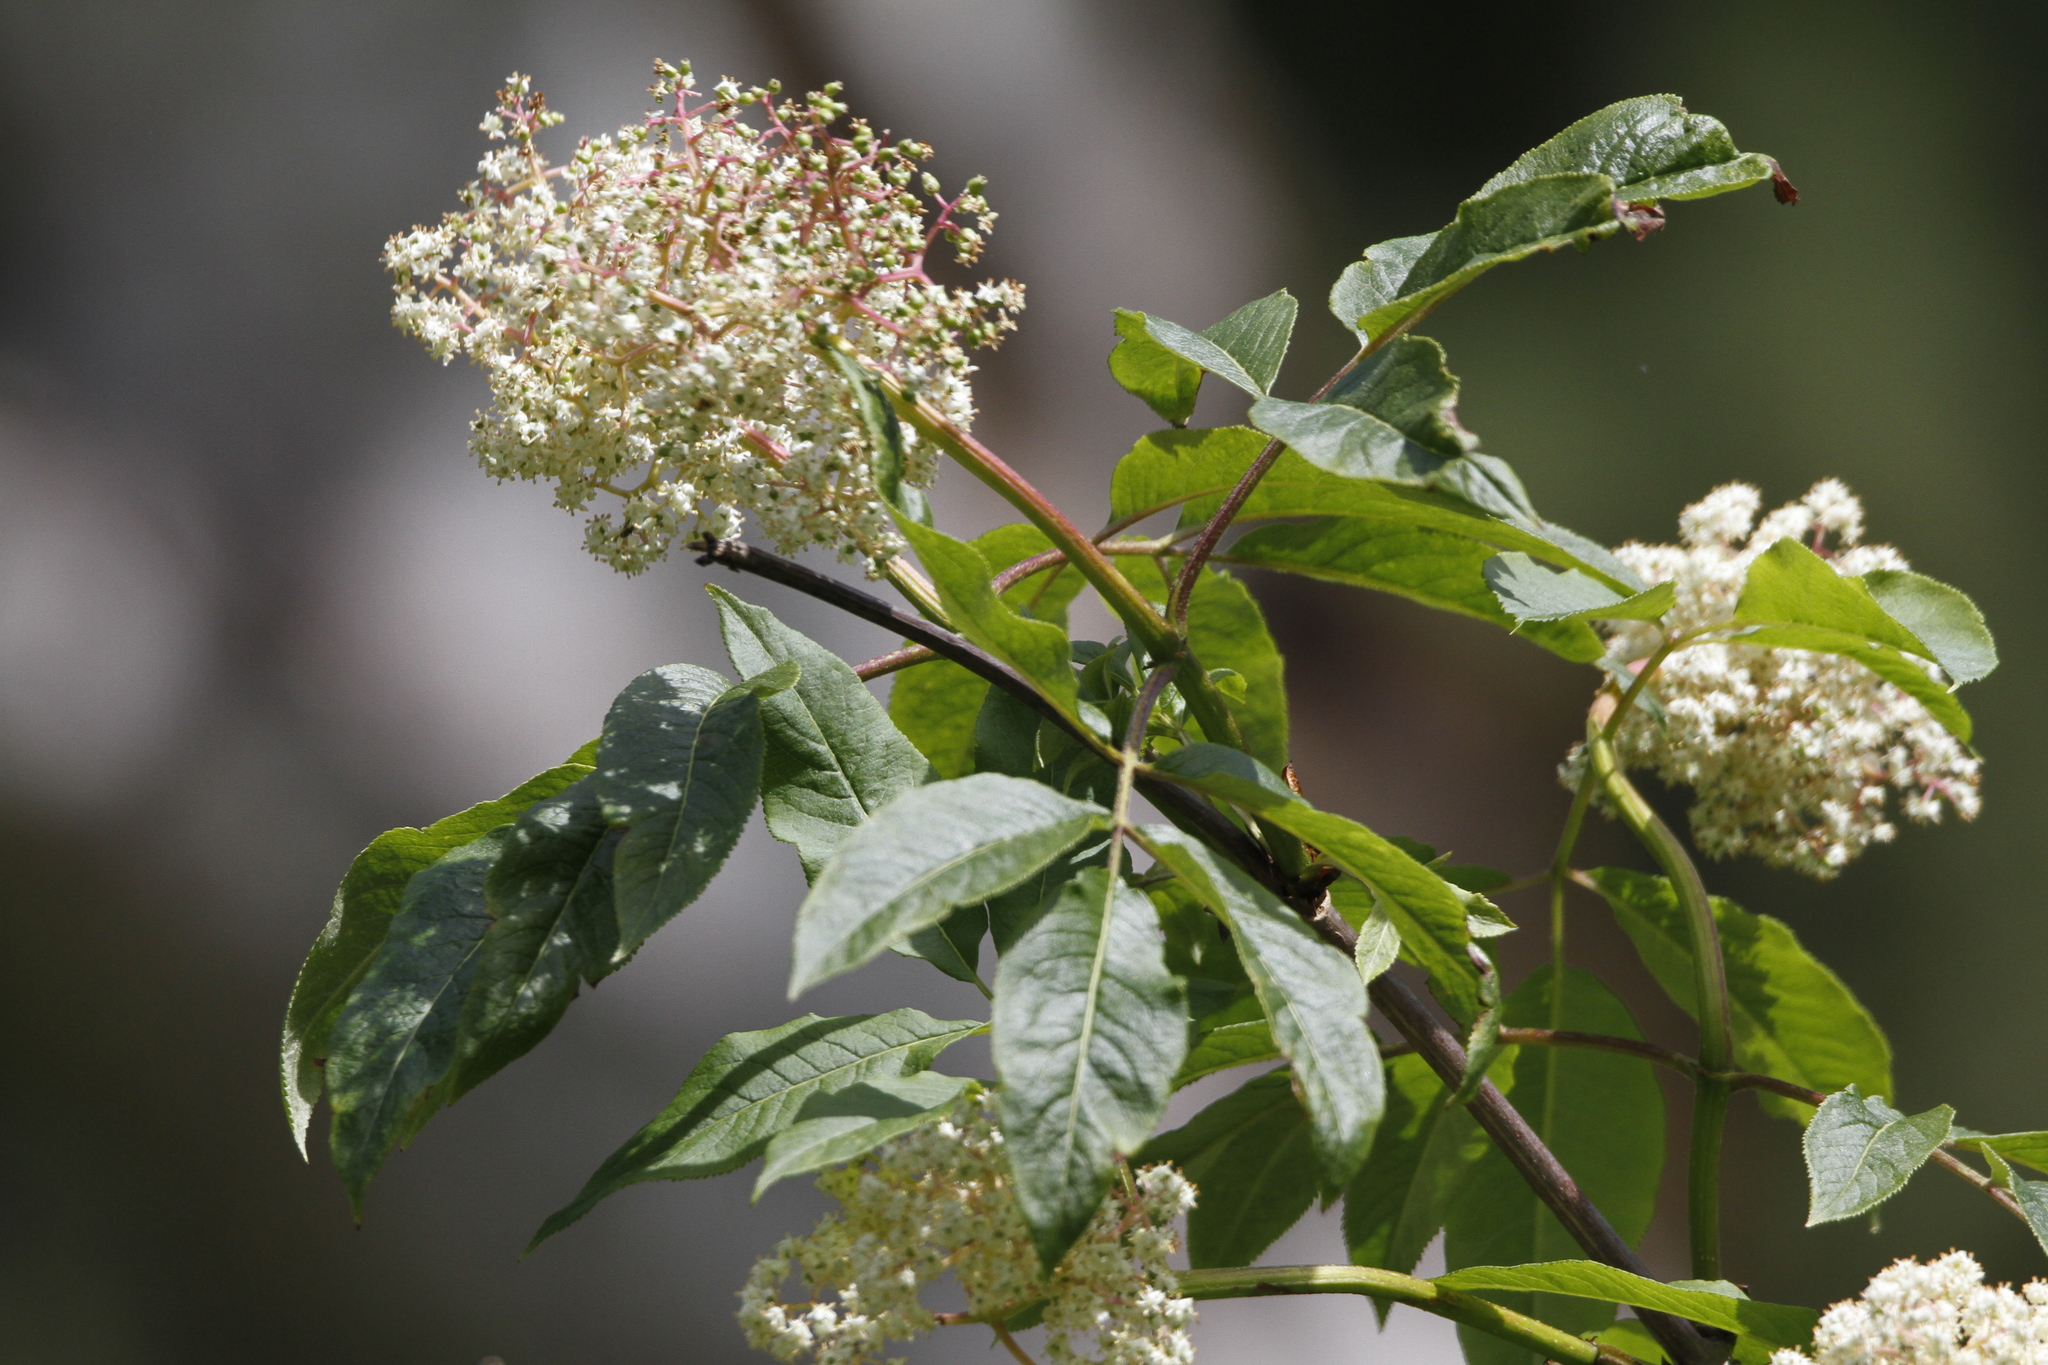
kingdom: Plantae
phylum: Tracheophyta
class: Magnoliopsida
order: Dipsacales
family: Viburnaceae
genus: Sambucus
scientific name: Sambucus racemosa
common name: Red-berried elder
